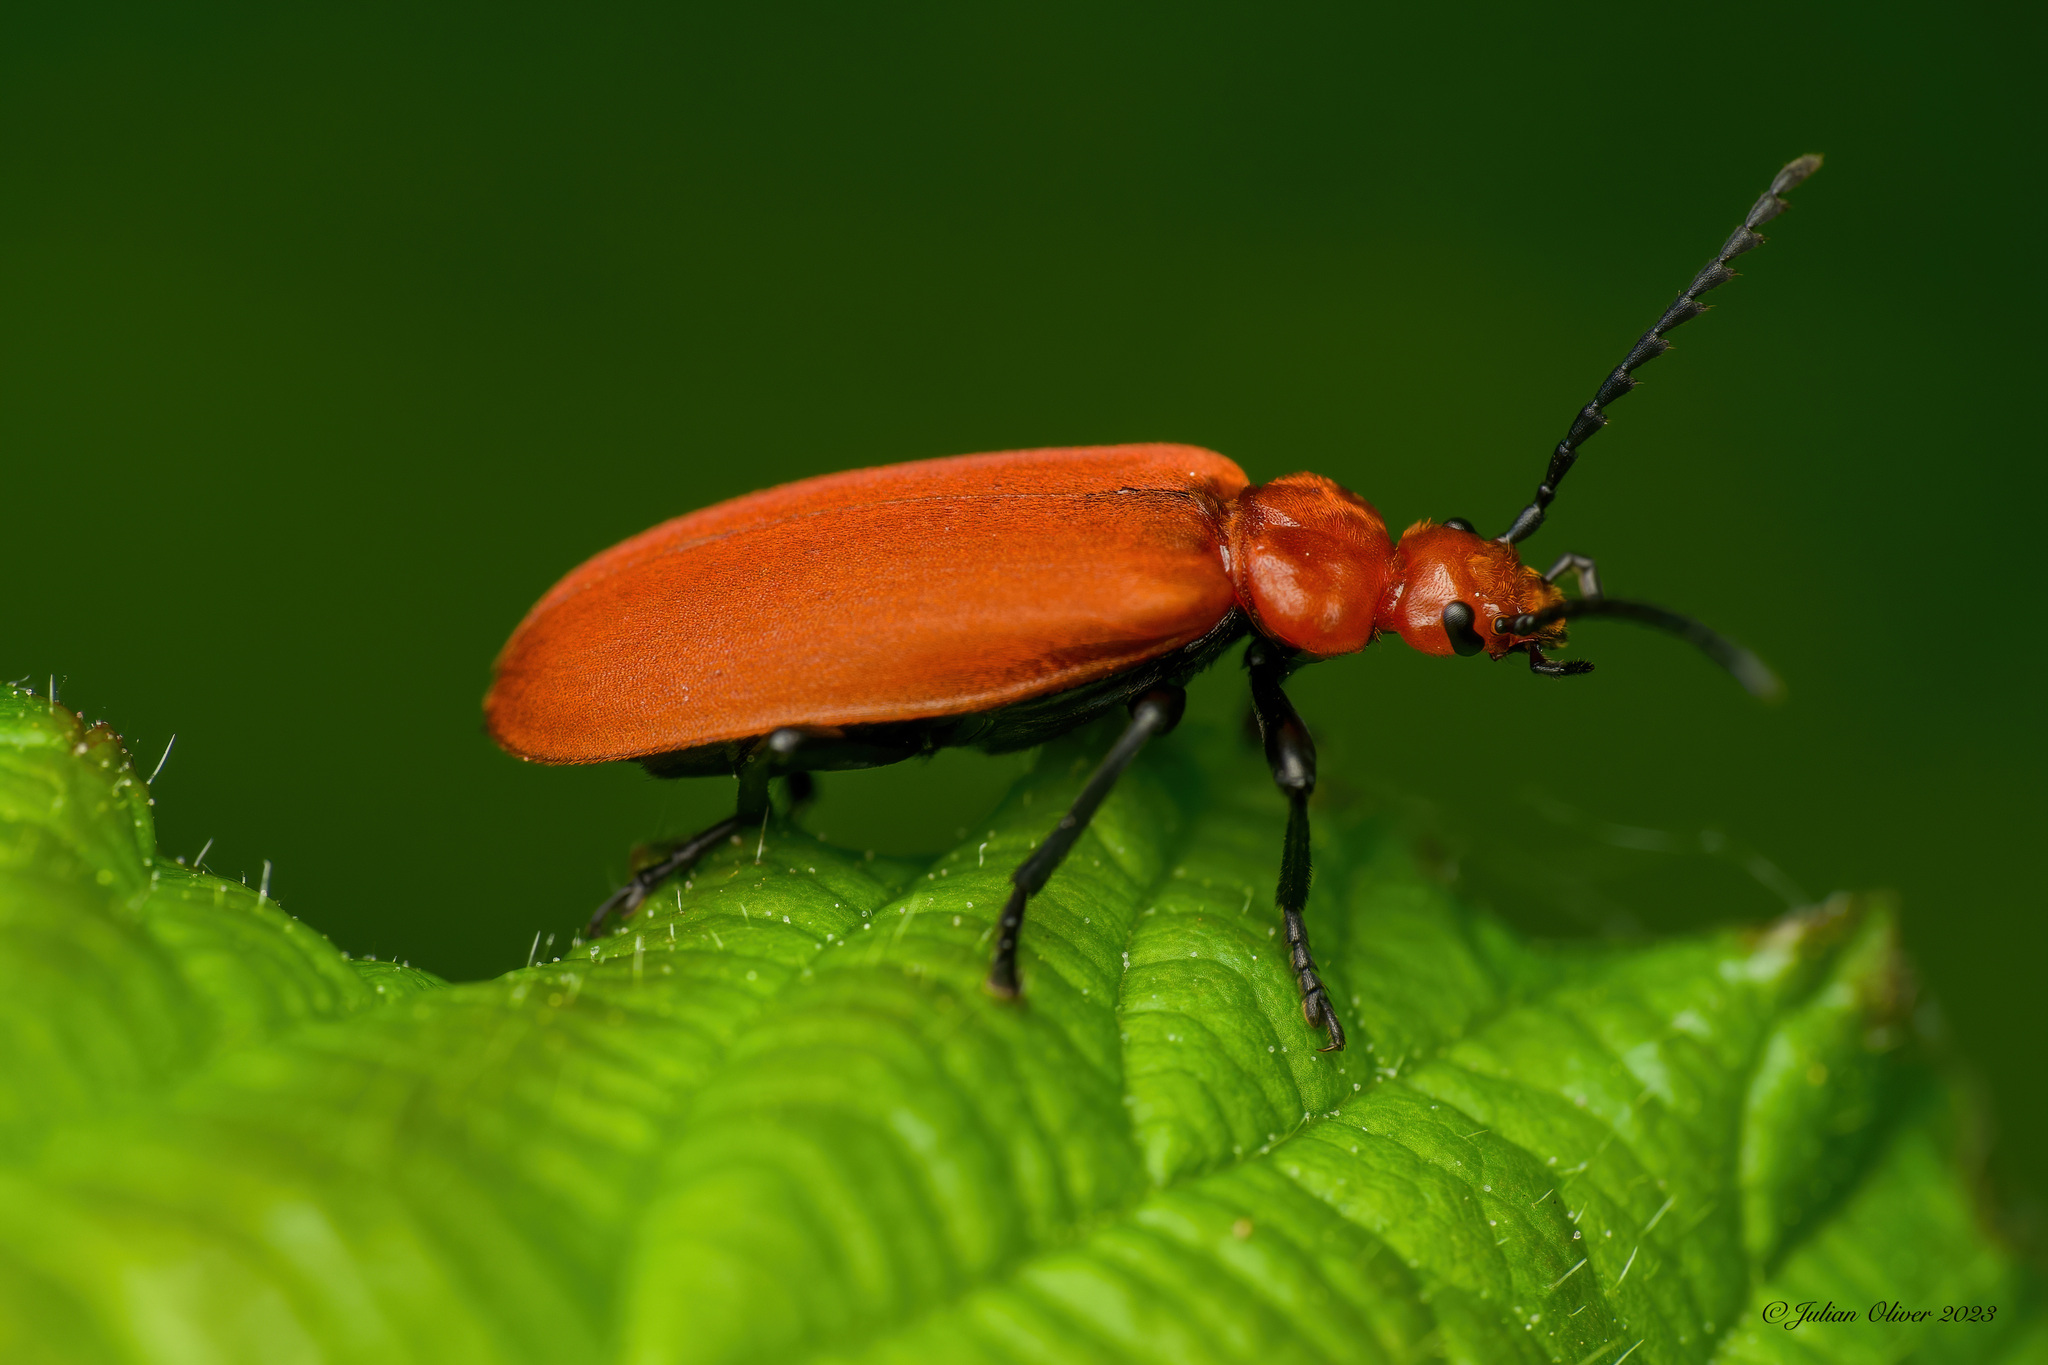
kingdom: Animalia
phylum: Arthropoda
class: Insecta
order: Coleoptera
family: Pyrochroidae
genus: Pyrochroa
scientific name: Pyrochroa serraticornis
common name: Red-headed cardinal beetle
